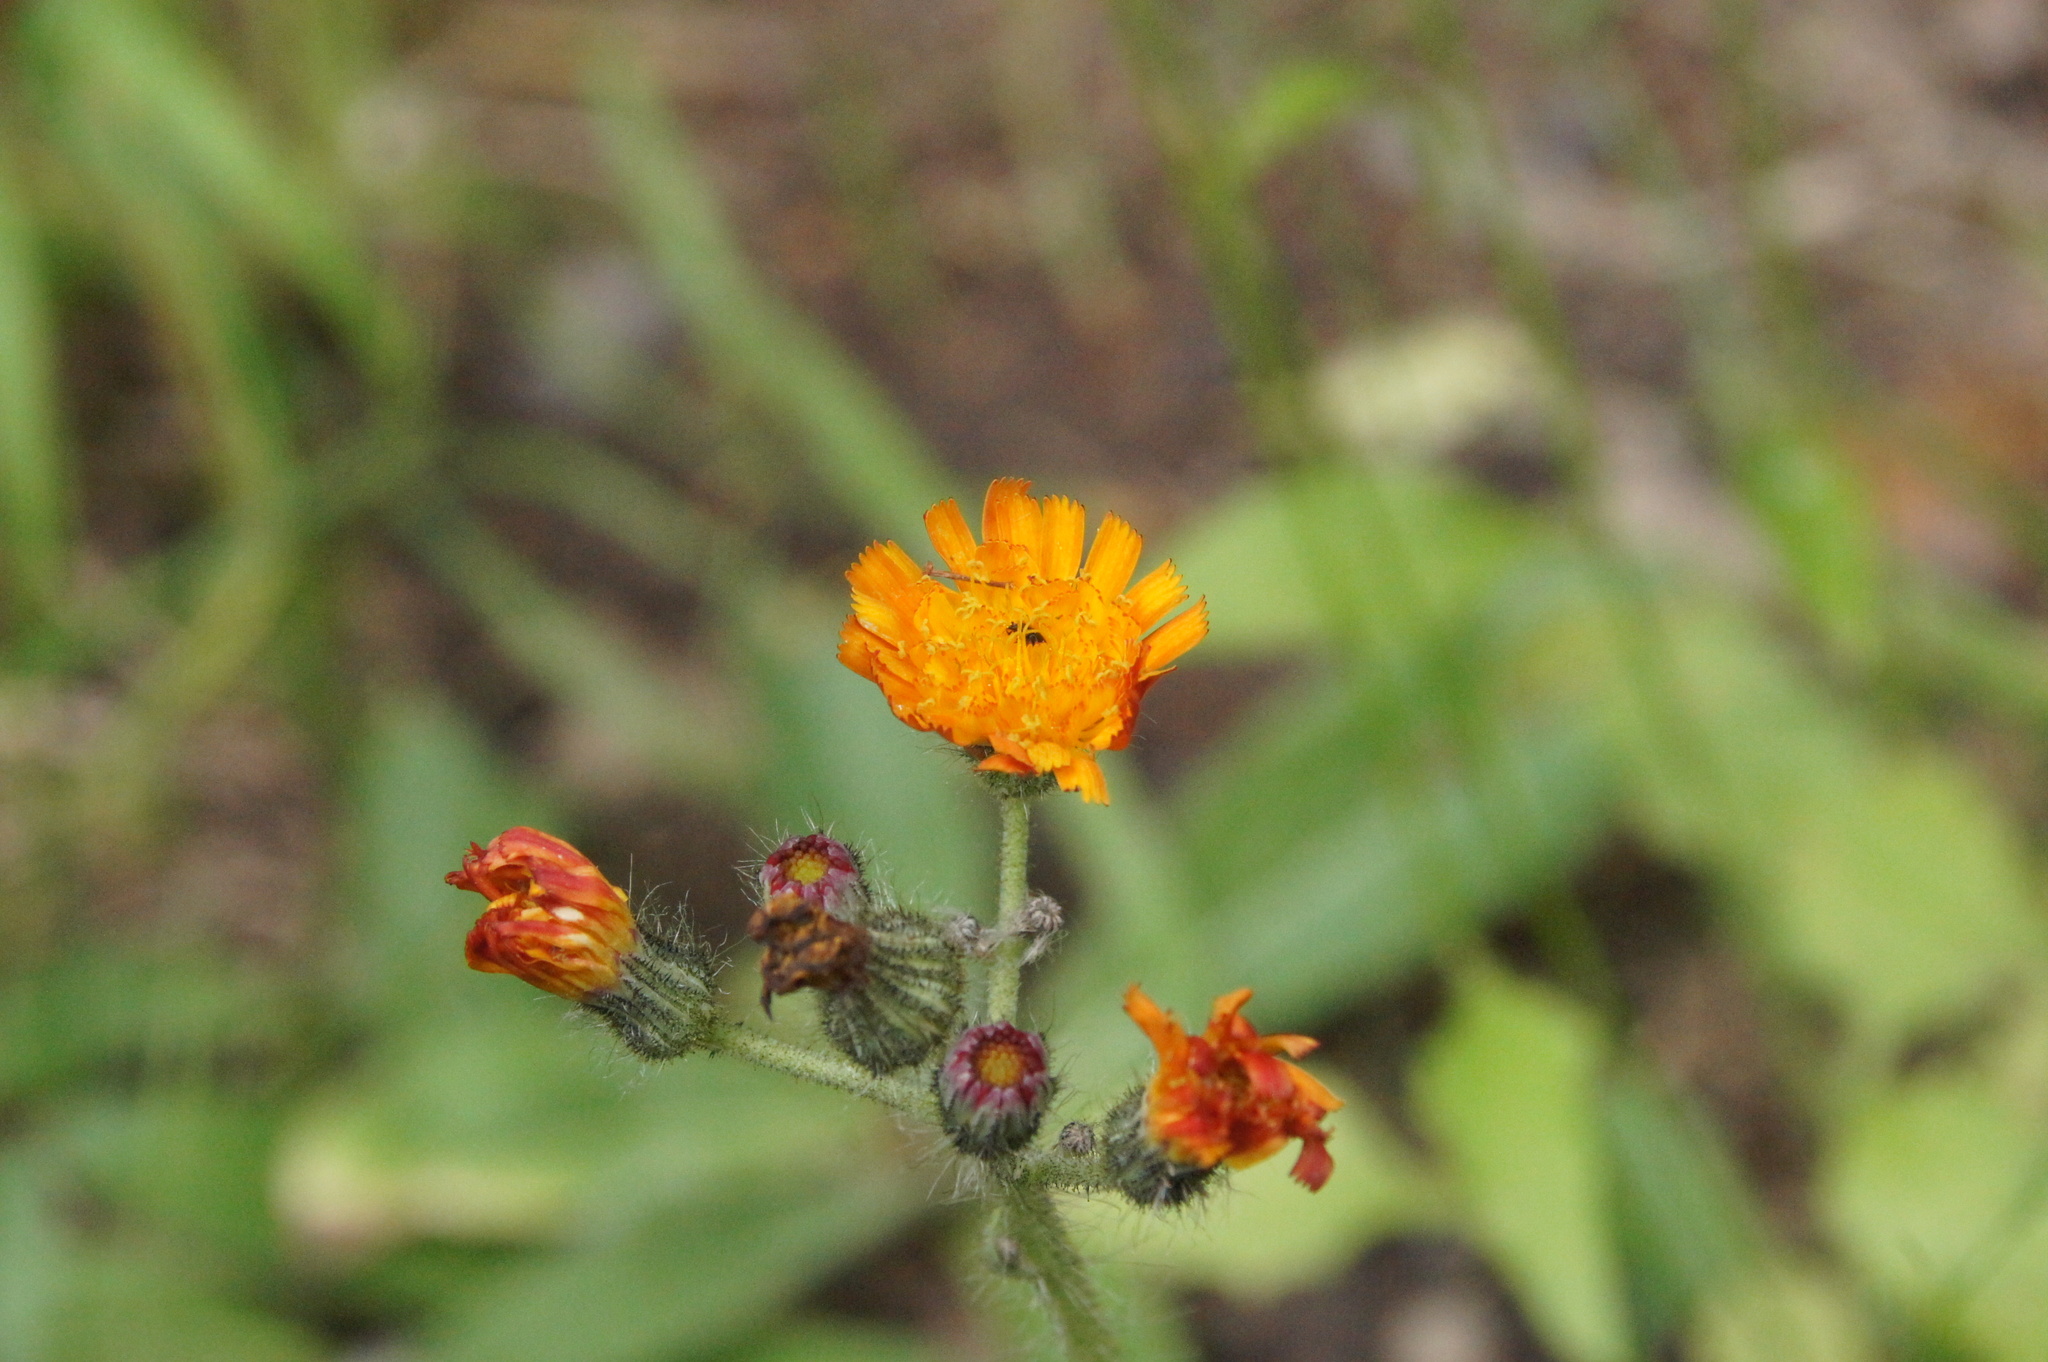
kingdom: Plantae
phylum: Tracheophyta
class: Magnoliopsida
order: Asterales
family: Asteraceae
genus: Pilosella
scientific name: Pilosella aurantiaca
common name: Fox-and-cubs
